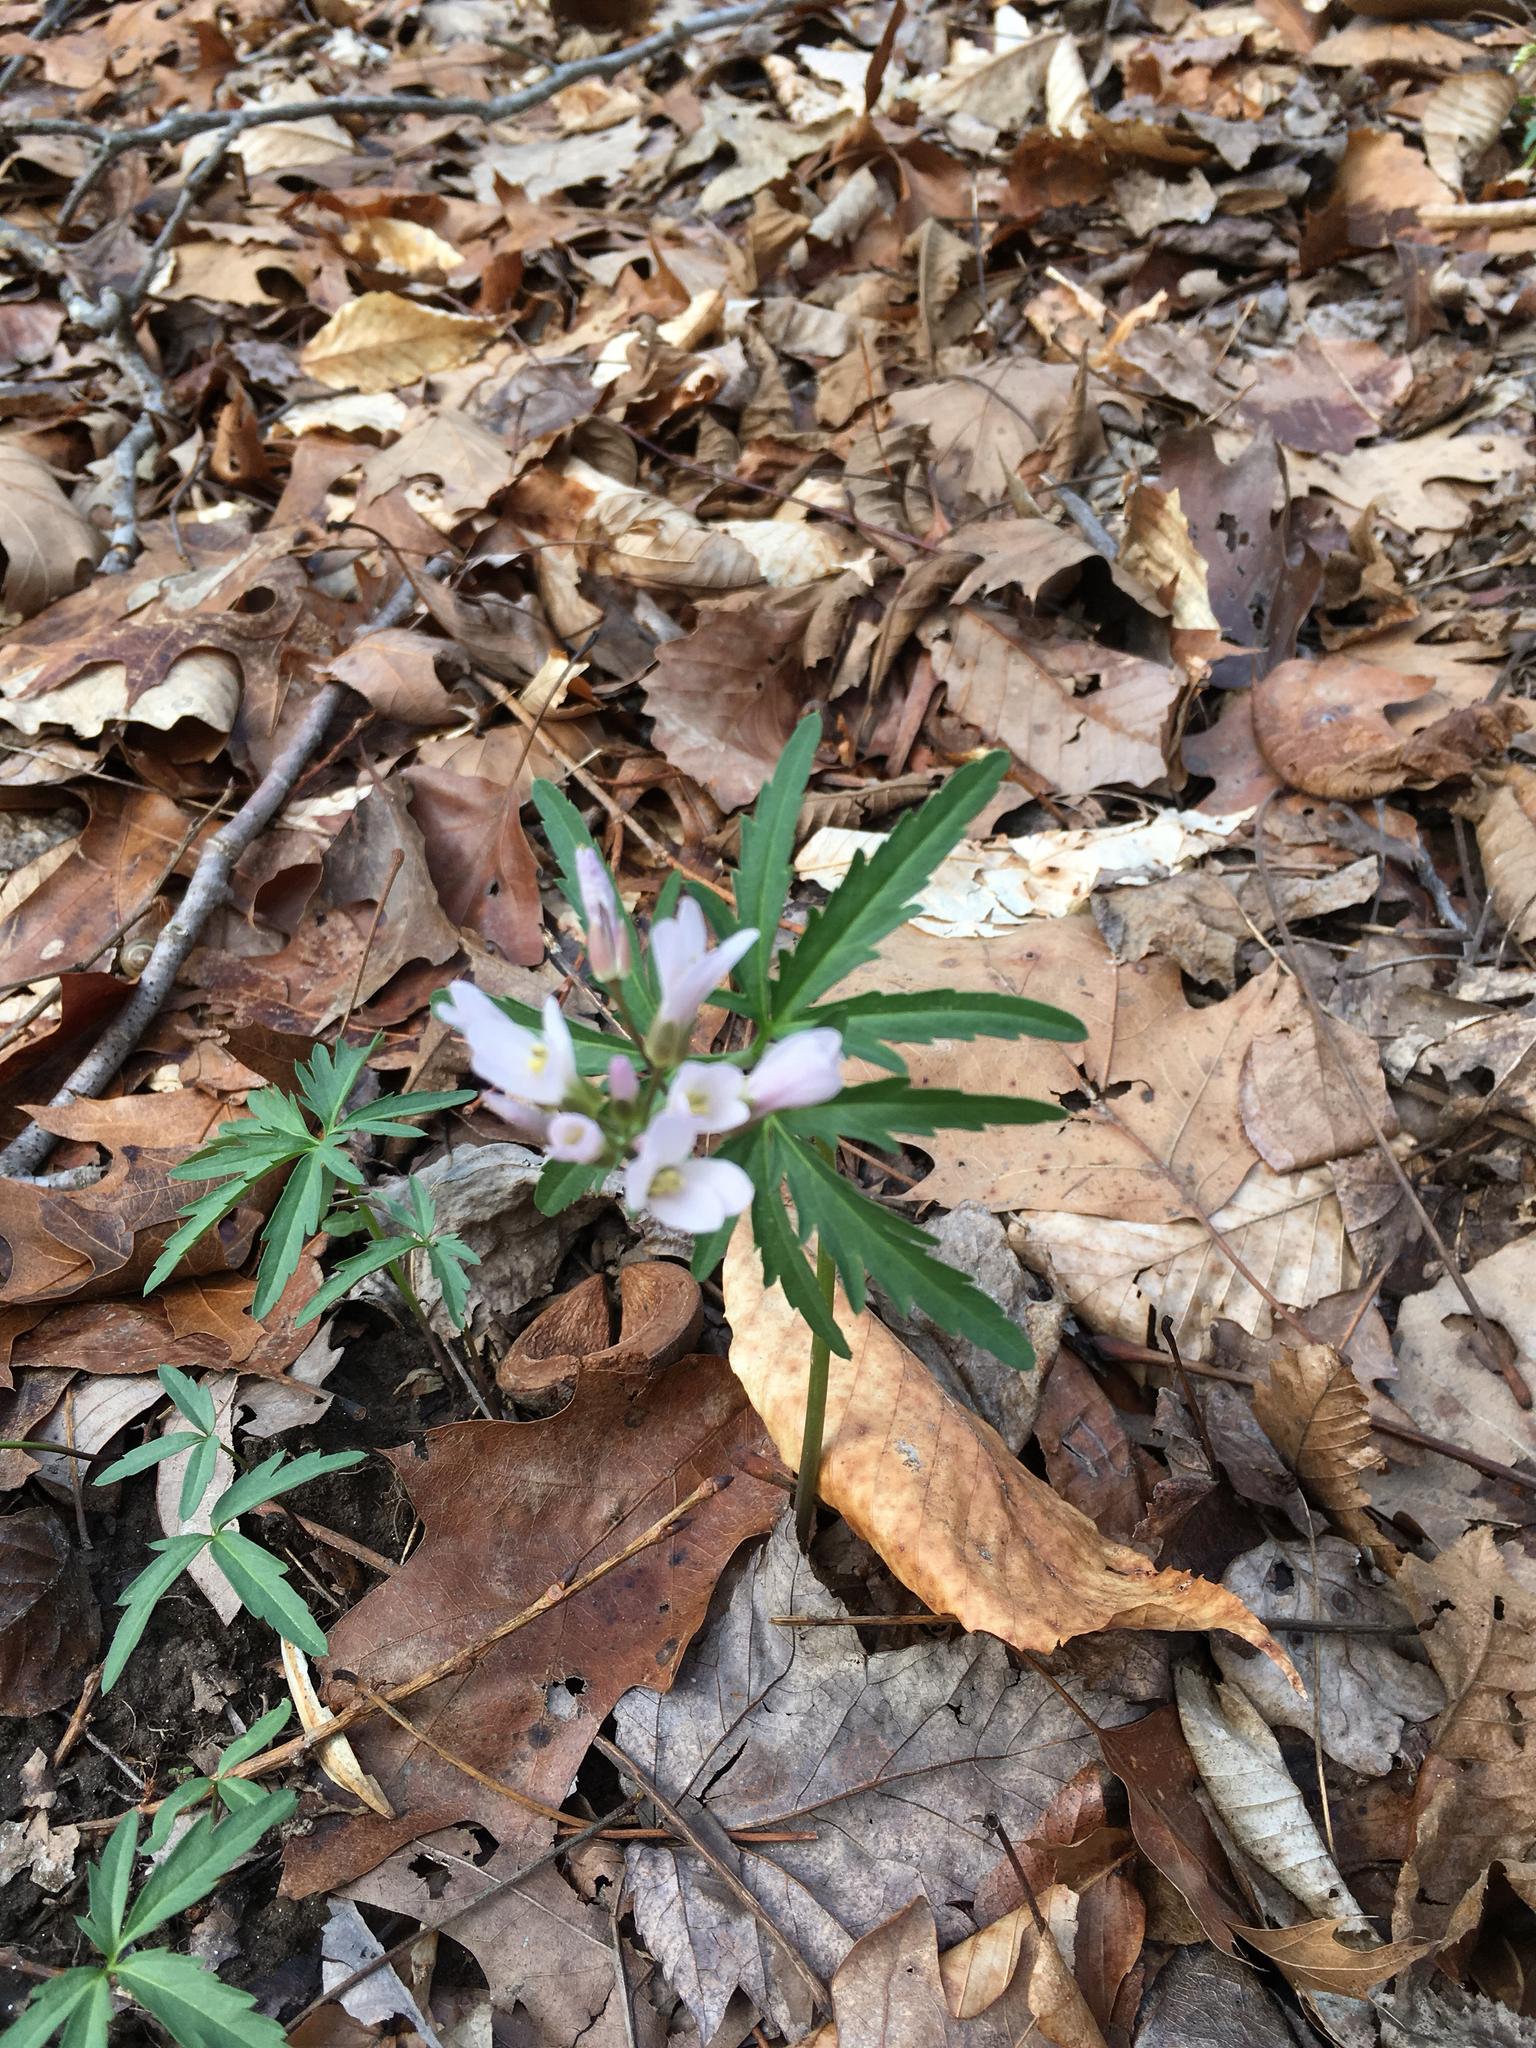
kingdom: Plantae
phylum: Tracheophyta
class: Magnoliopsida
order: Brassicales
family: Brassicaceae
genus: Cardamine
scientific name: Cardamine concatenata
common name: Cut-leaf toothcup
